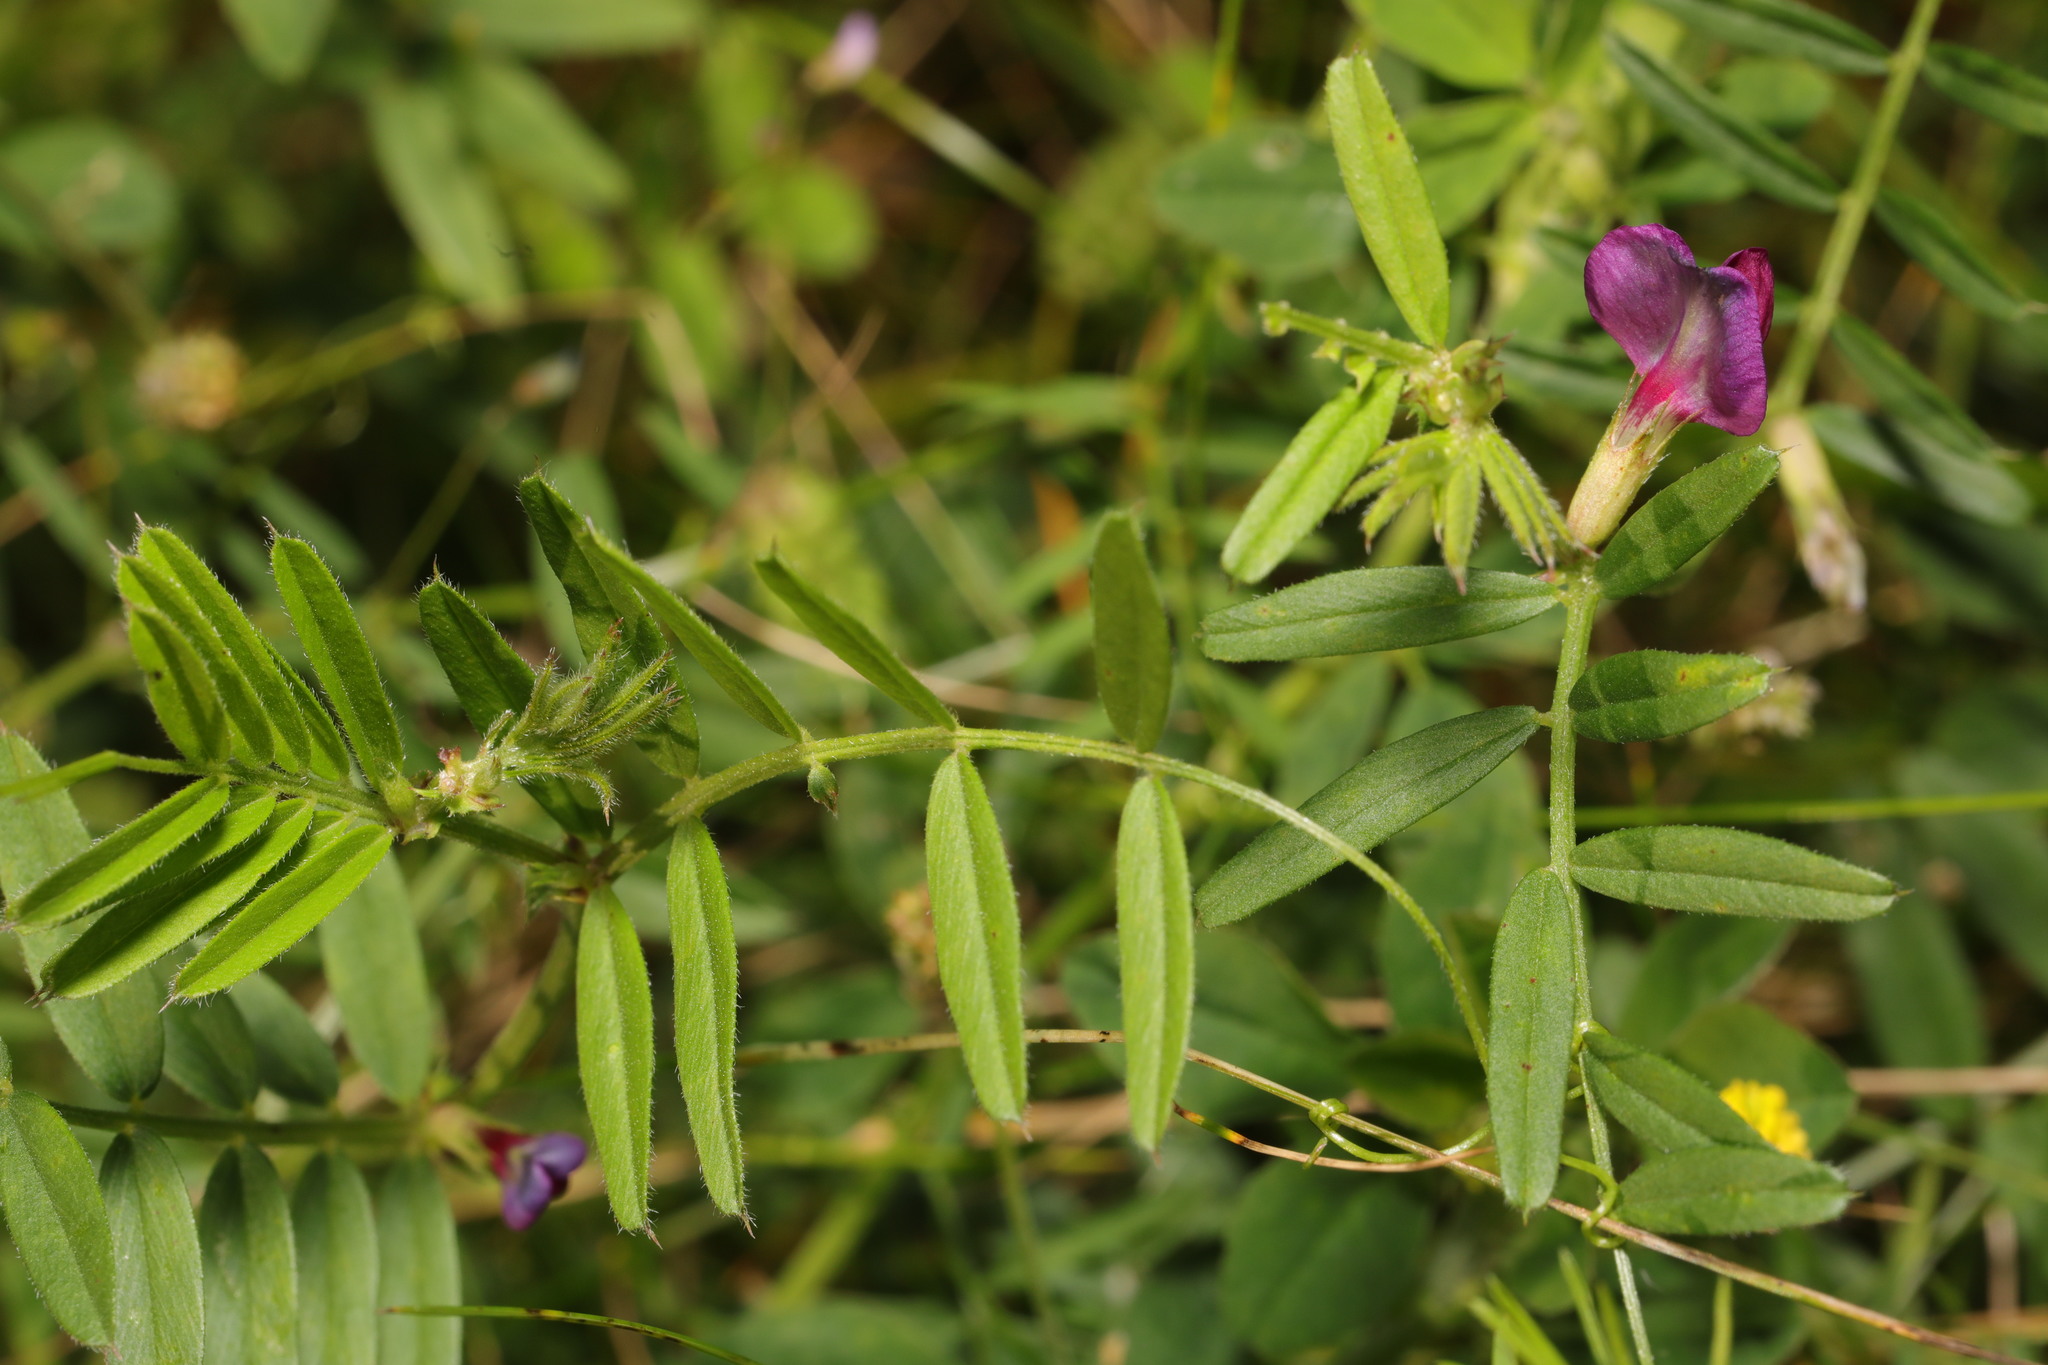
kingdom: Plantae
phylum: Tracheophyta
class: Magnoliopsida
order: Fabales
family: Fabaceae
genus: Vicia
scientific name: Vicia sativa
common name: Garden vetch
